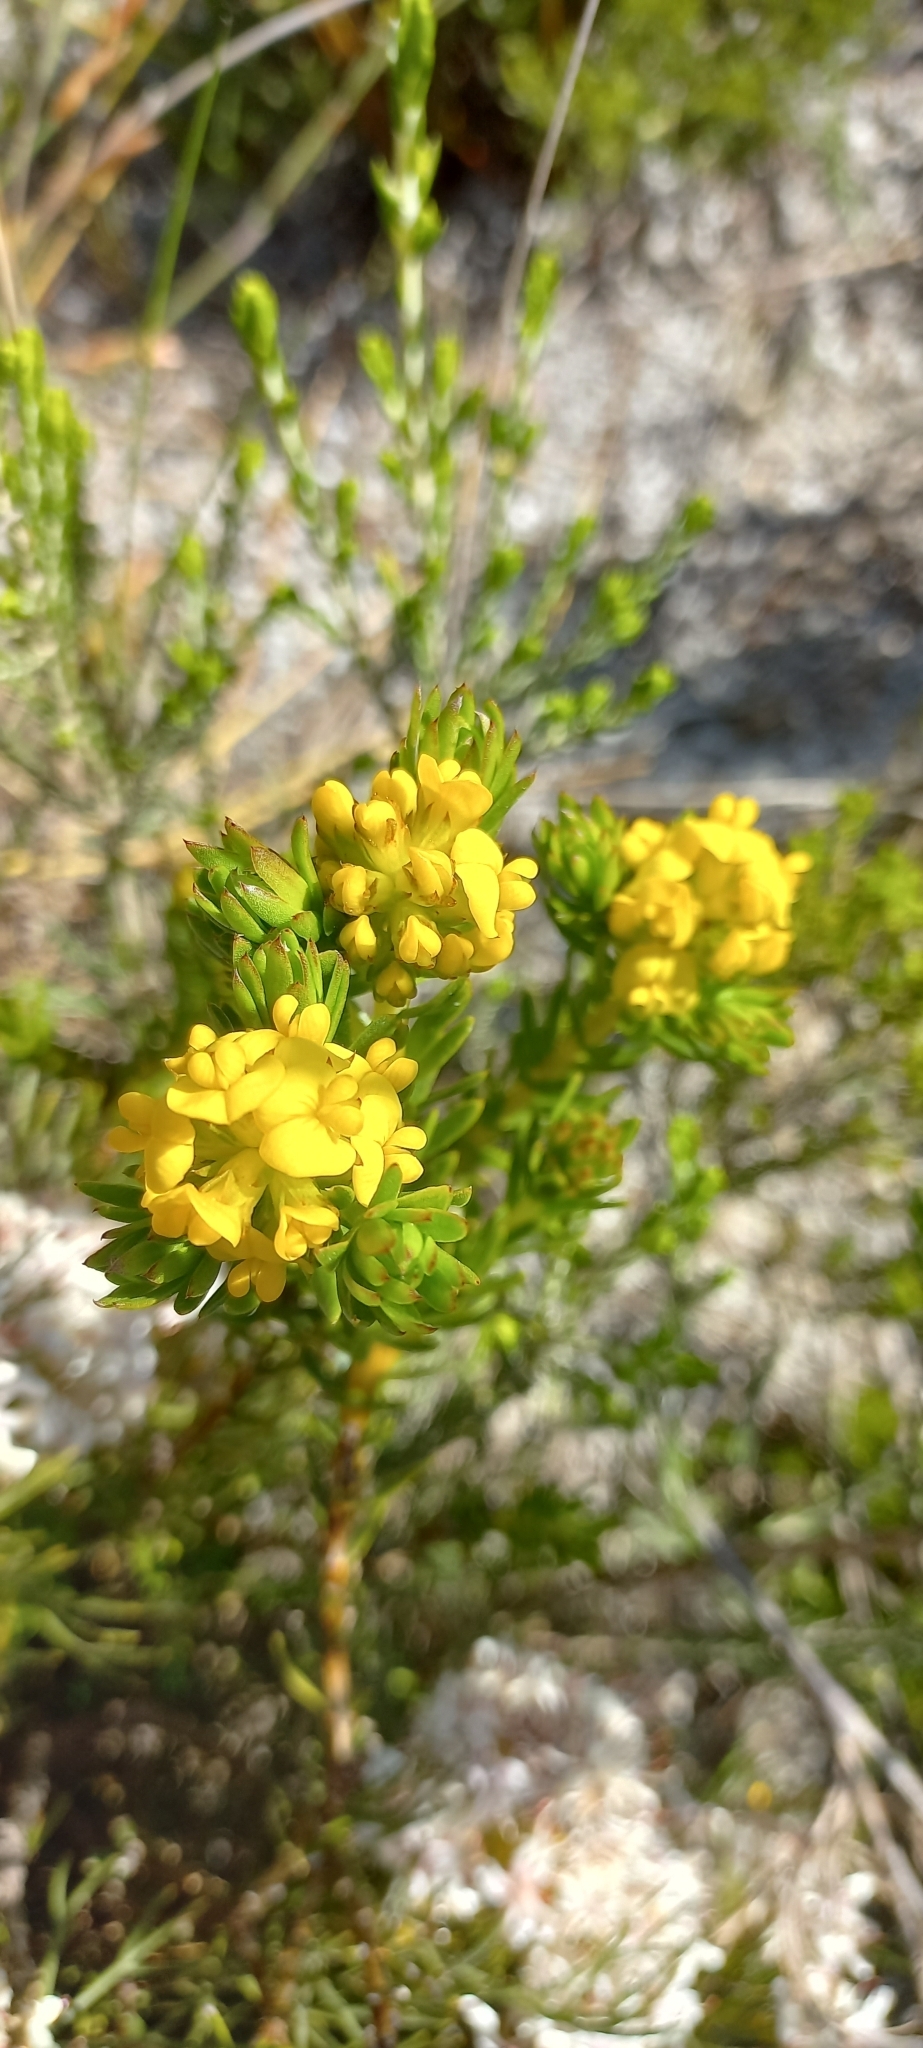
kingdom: Plantae
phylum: Tracheophyta
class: Magnoliopsida
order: Fabales
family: Fabaceae
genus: Aspalathus
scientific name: Aspalathus callosa
